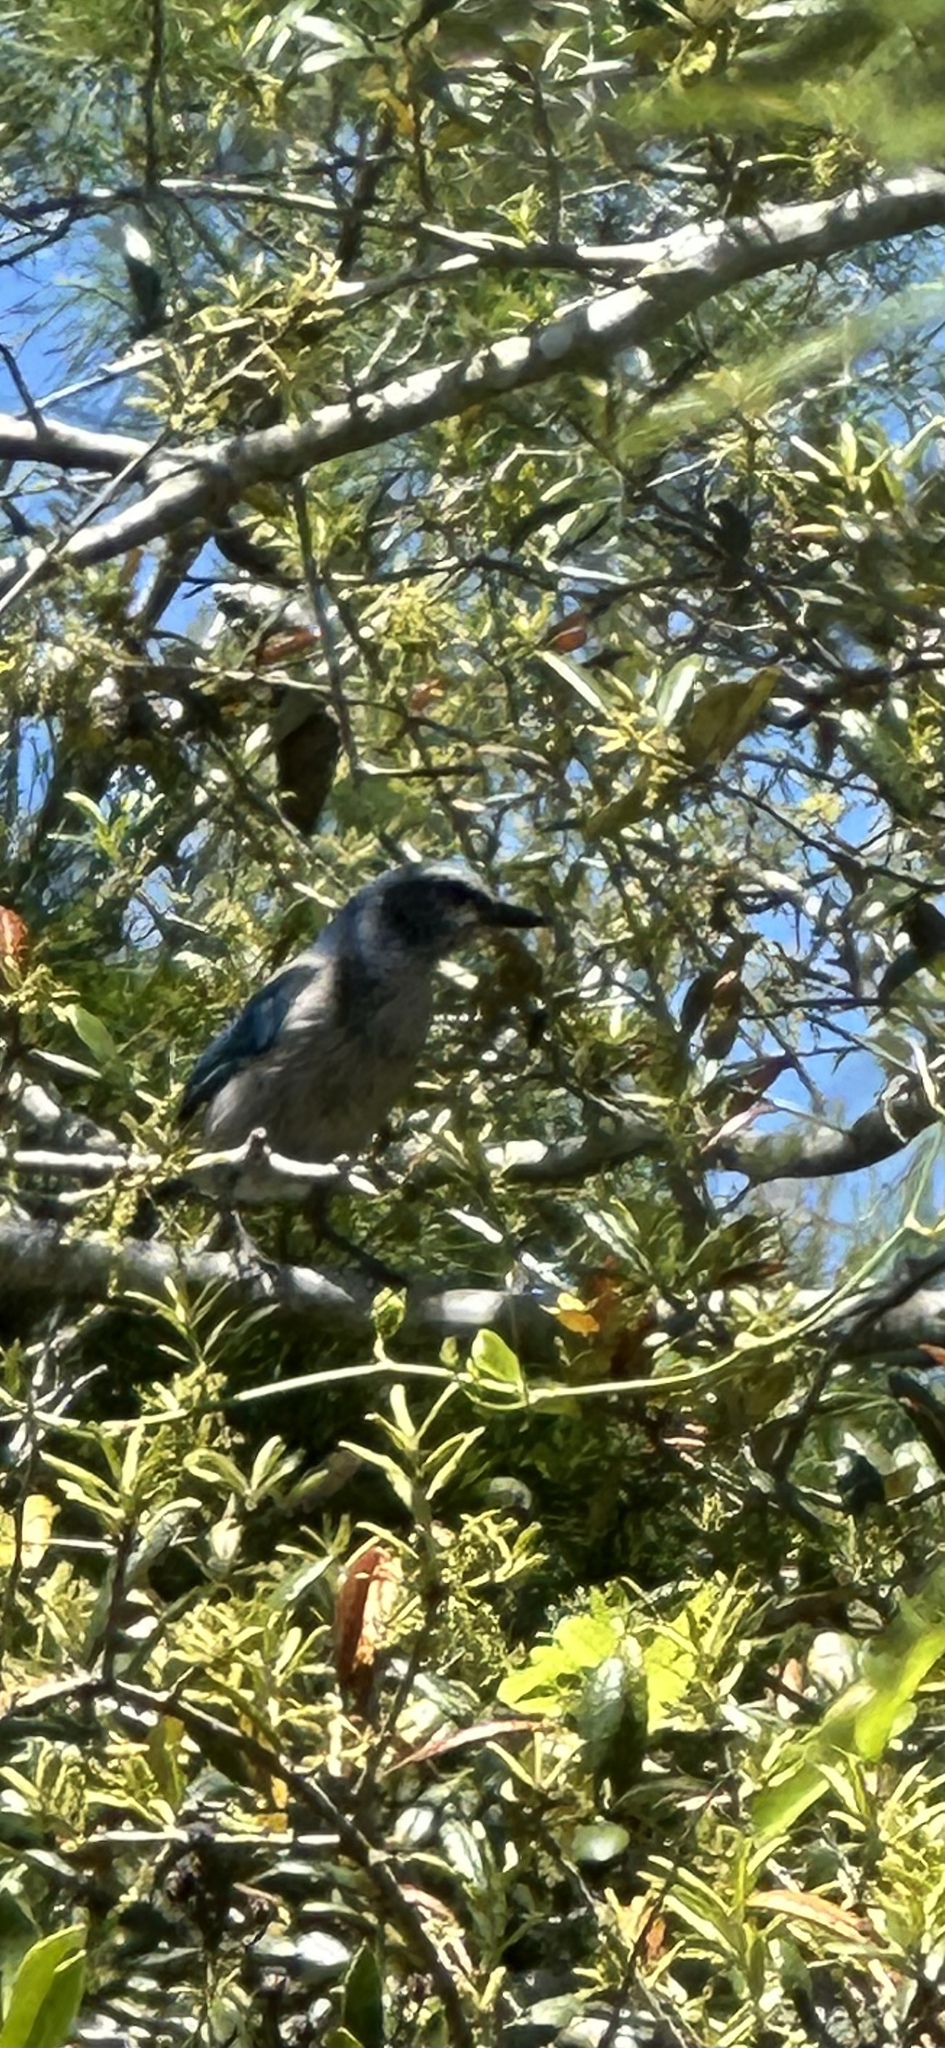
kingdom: Animalia
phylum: Chordata
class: Aves
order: Passeriformes
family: Corvidae
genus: Aphelocoma
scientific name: Aphelocoma coerulescens
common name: Florida scrub jay
